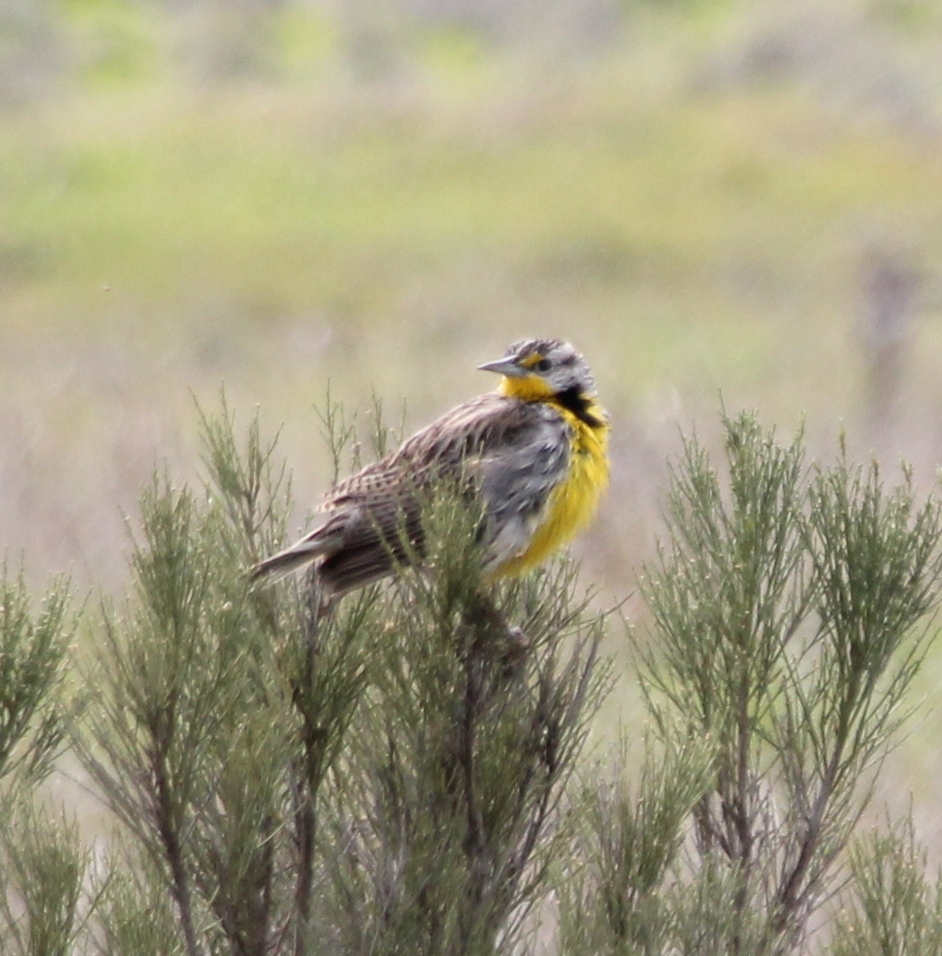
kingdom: Animalia
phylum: Chordata
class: Aves
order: Passeriformes
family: Icteridae
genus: Sturnella
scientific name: Sturnella neglecta
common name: Western meadowlark
